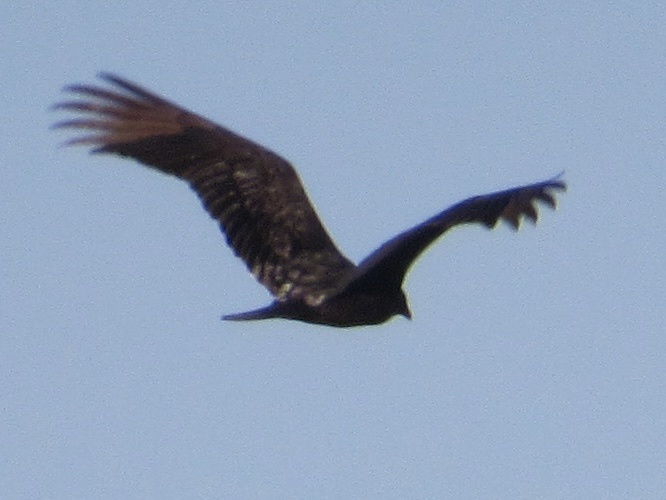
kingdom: Animalia
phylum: Chordata
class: Aves
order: Accipitriformes
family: Cathartidae
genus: Cathartes
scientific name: Cathartes aura
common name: Turkey vulture
